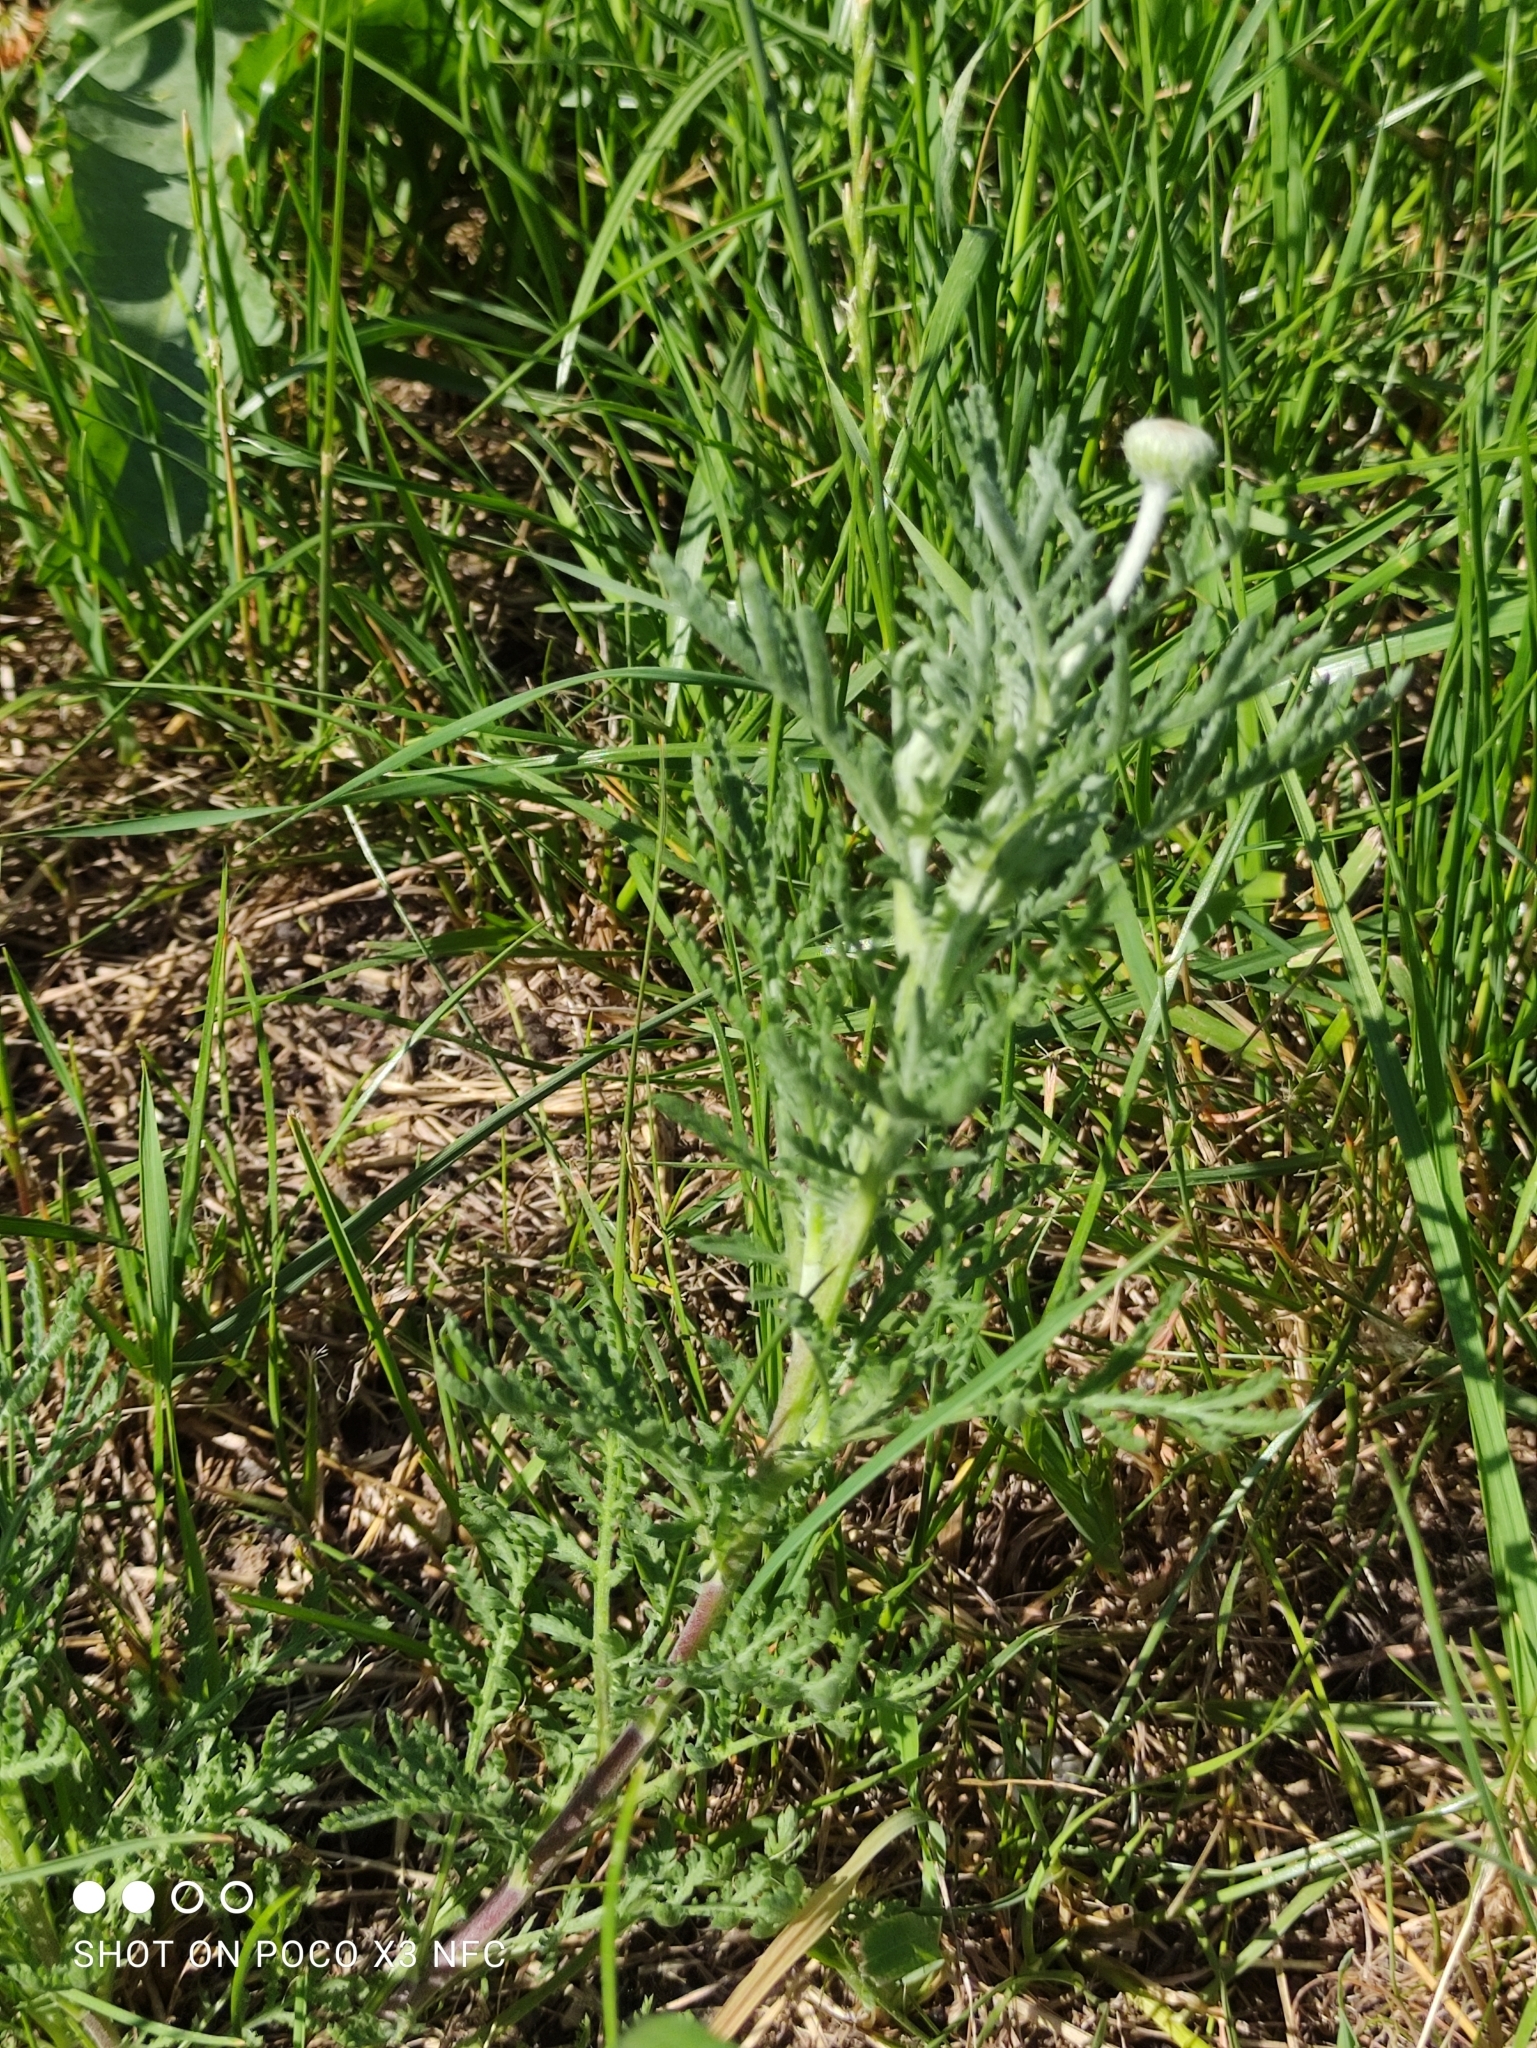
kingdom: Plantae
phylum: Tracheophyta
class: Magnoliopsida
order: Asterales
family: Asteraceae
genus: Cota
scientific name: Cota tinctoria
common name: Golden chamomile
